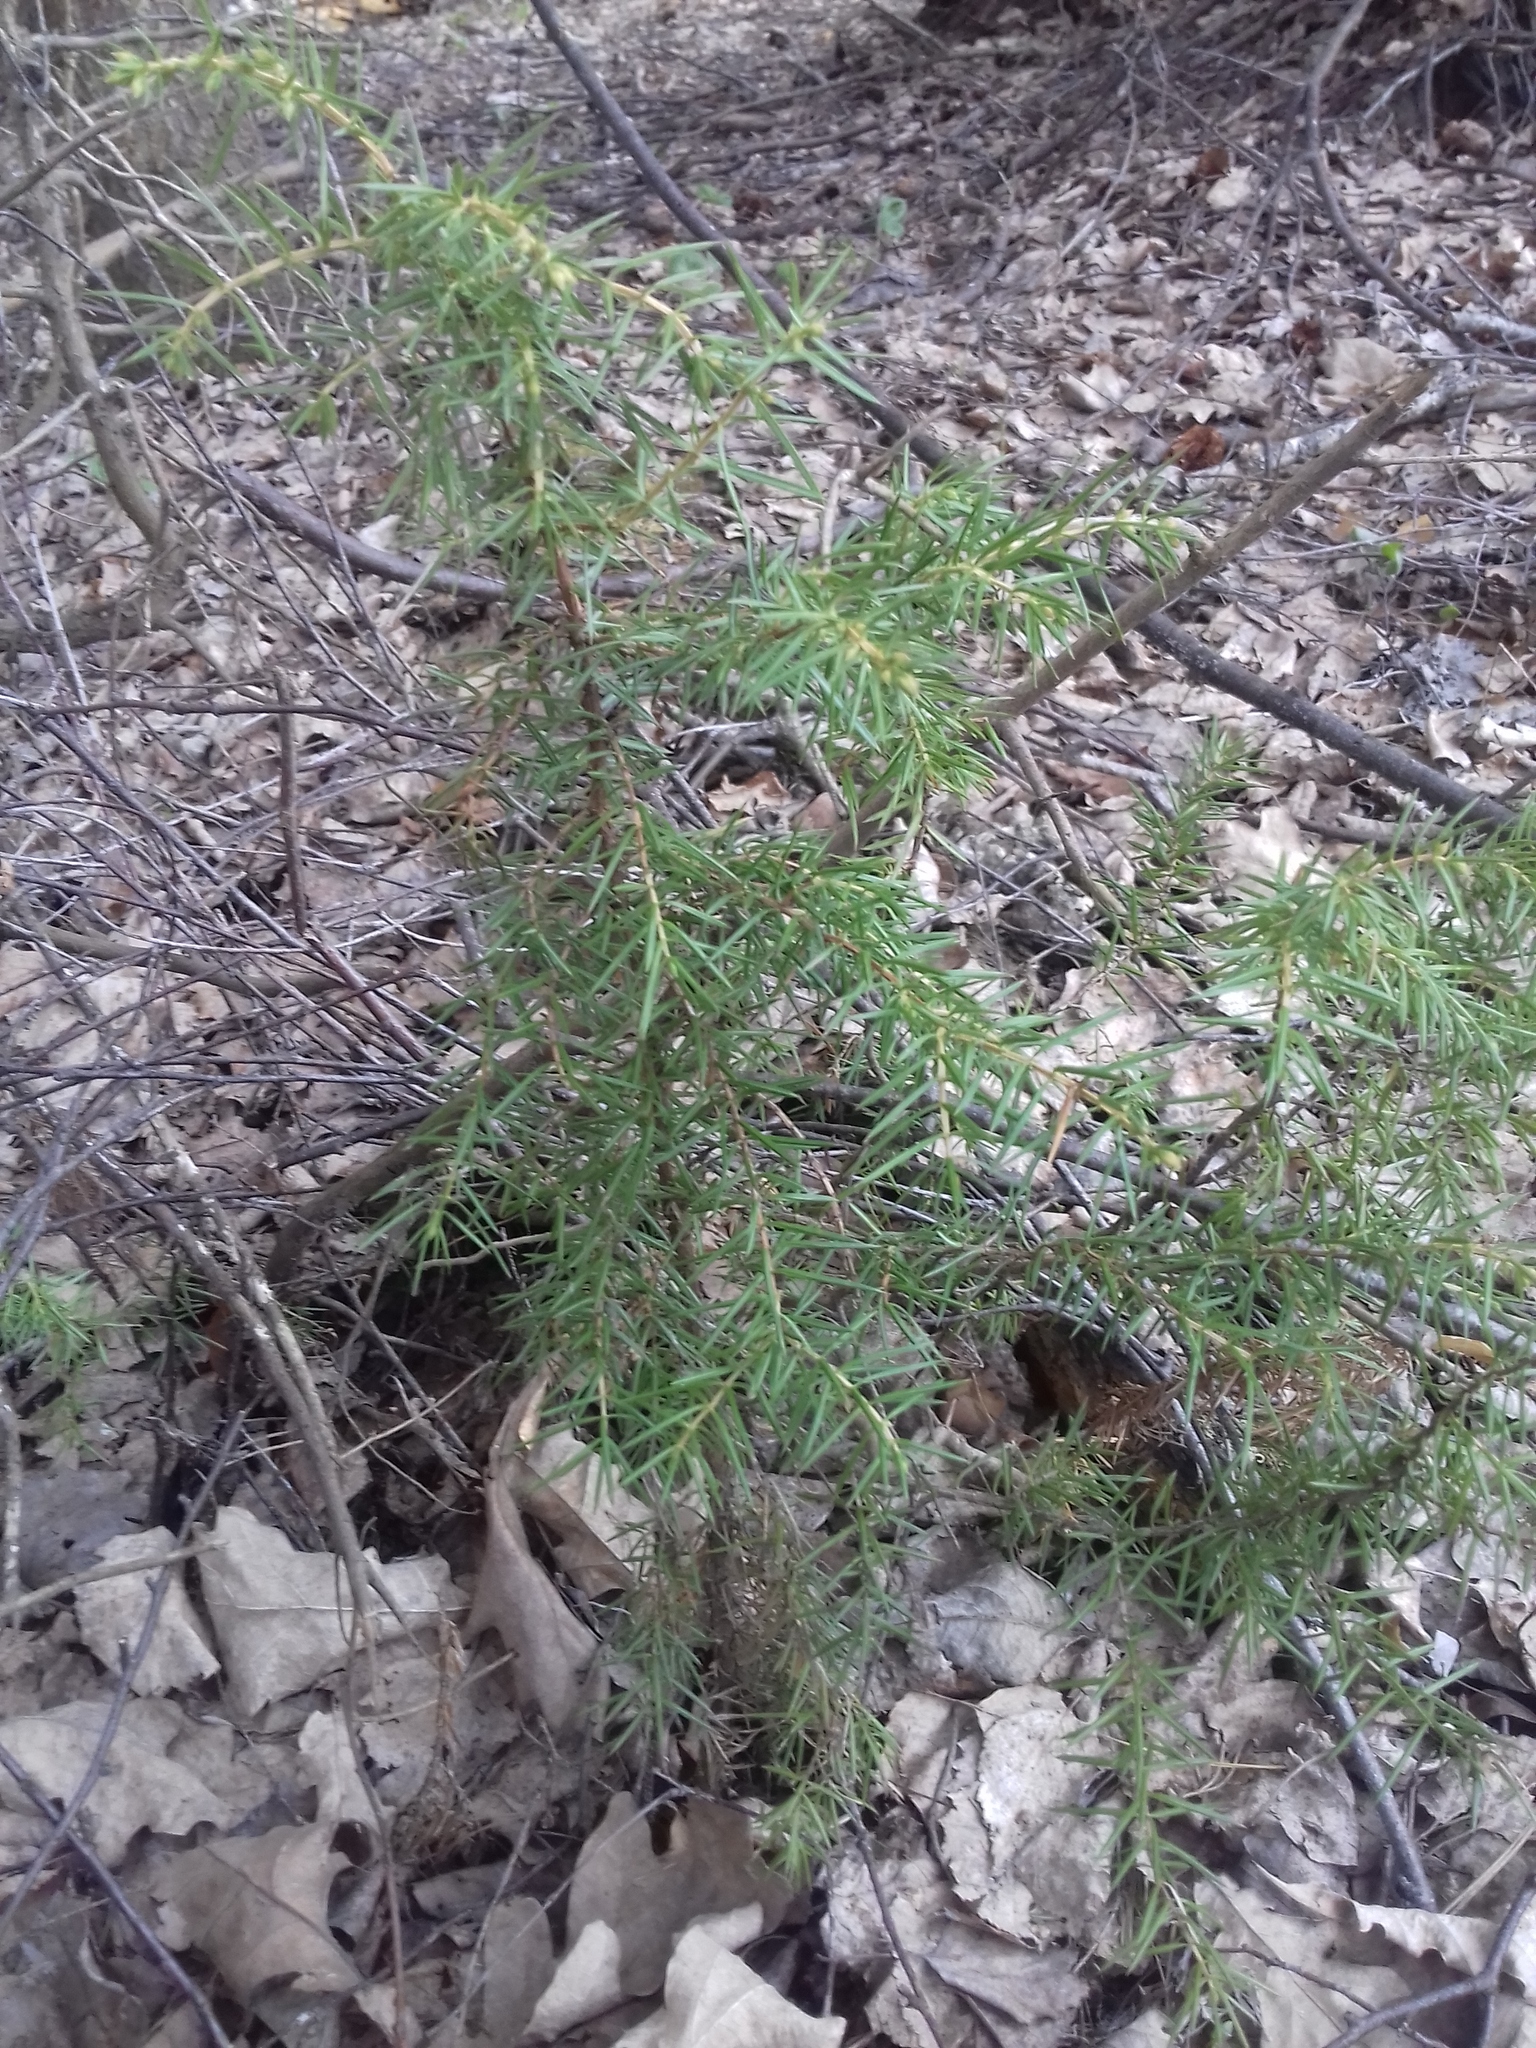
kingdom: Plantae
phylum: Tracheophyta
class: Pinopsida
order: Pinales
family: Cupressaceae
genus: Juniperus
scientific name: Juniperus communis
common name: Common juniper
